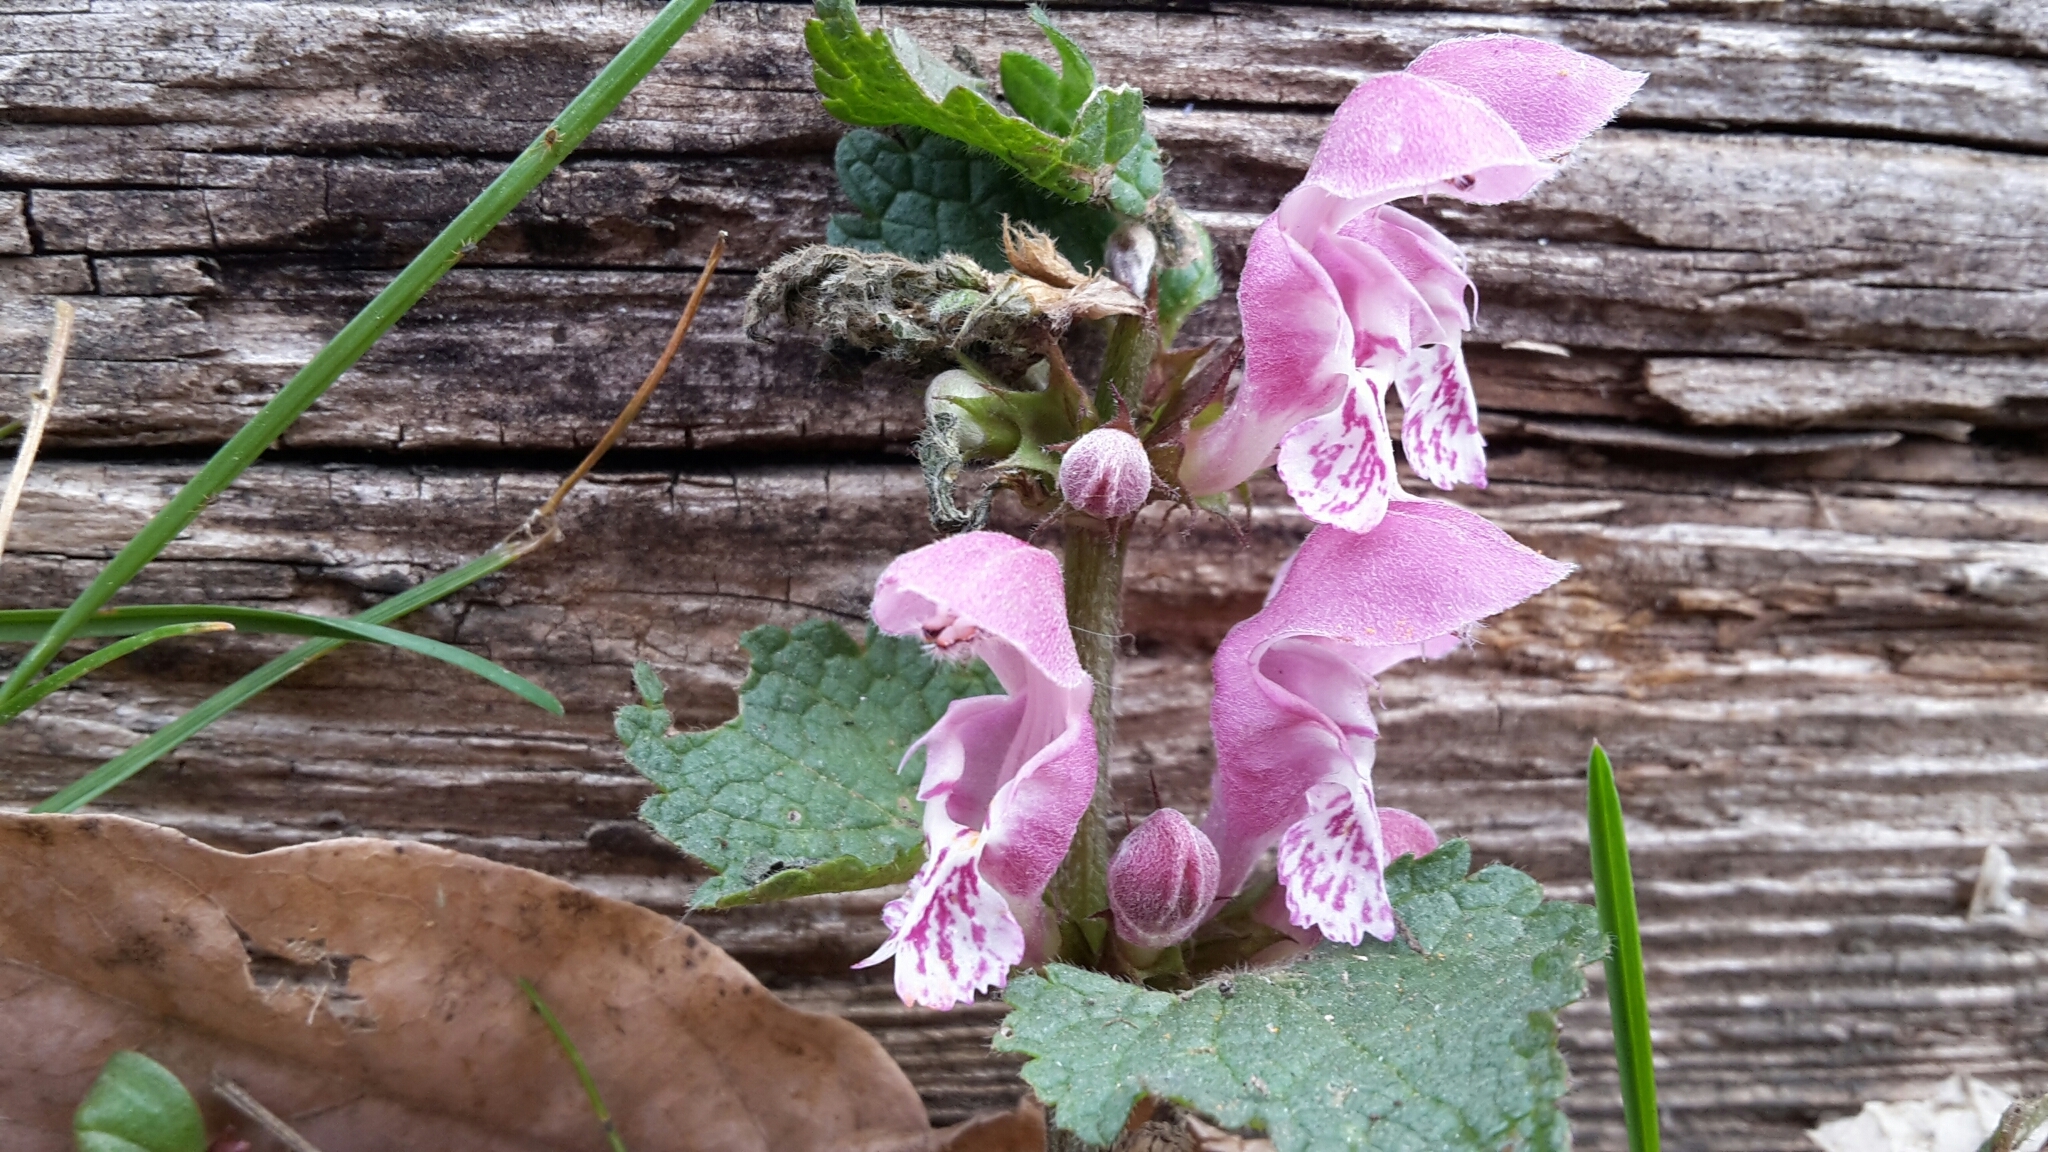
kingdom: Plantae
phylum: Tracheophyta
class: Magnoliopsida
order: Lamiales
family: Lamiaceae
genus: Lamium
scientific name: Lamium maculatum
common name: Spotted dead-nettle
